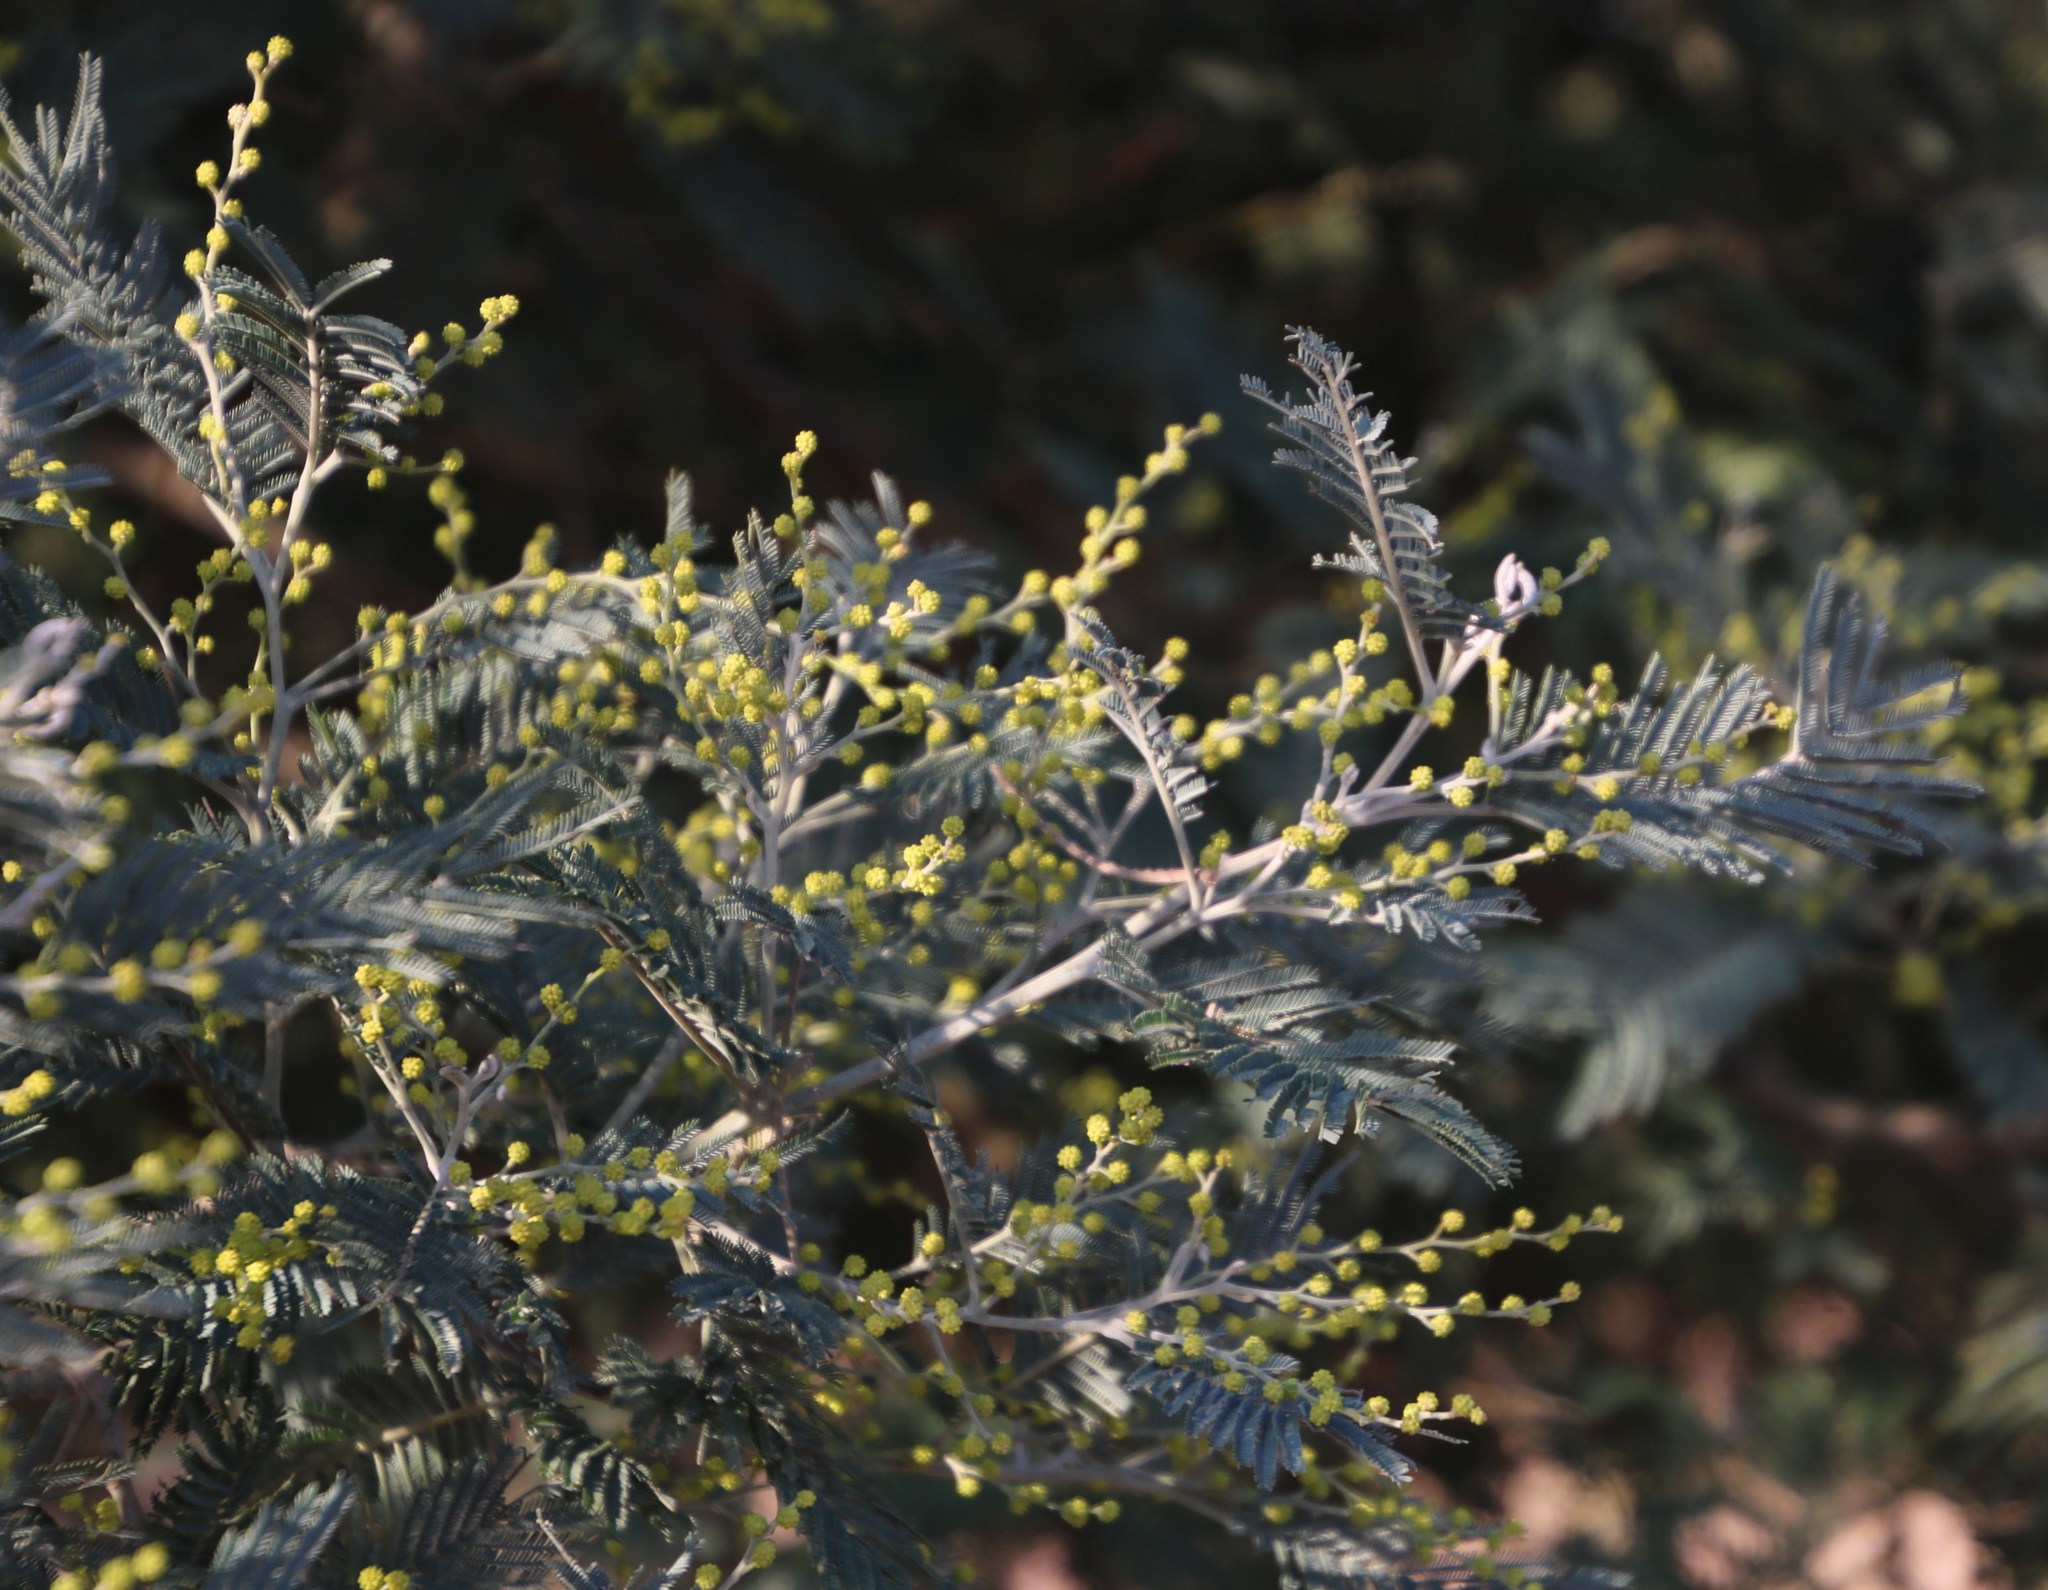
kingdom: Plantae
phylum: Tracheophyta
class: Magnoliopsida
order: Fabales
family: Fabaceae
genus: Acacia
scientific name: Acacia dealbata
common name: Silver wattle
